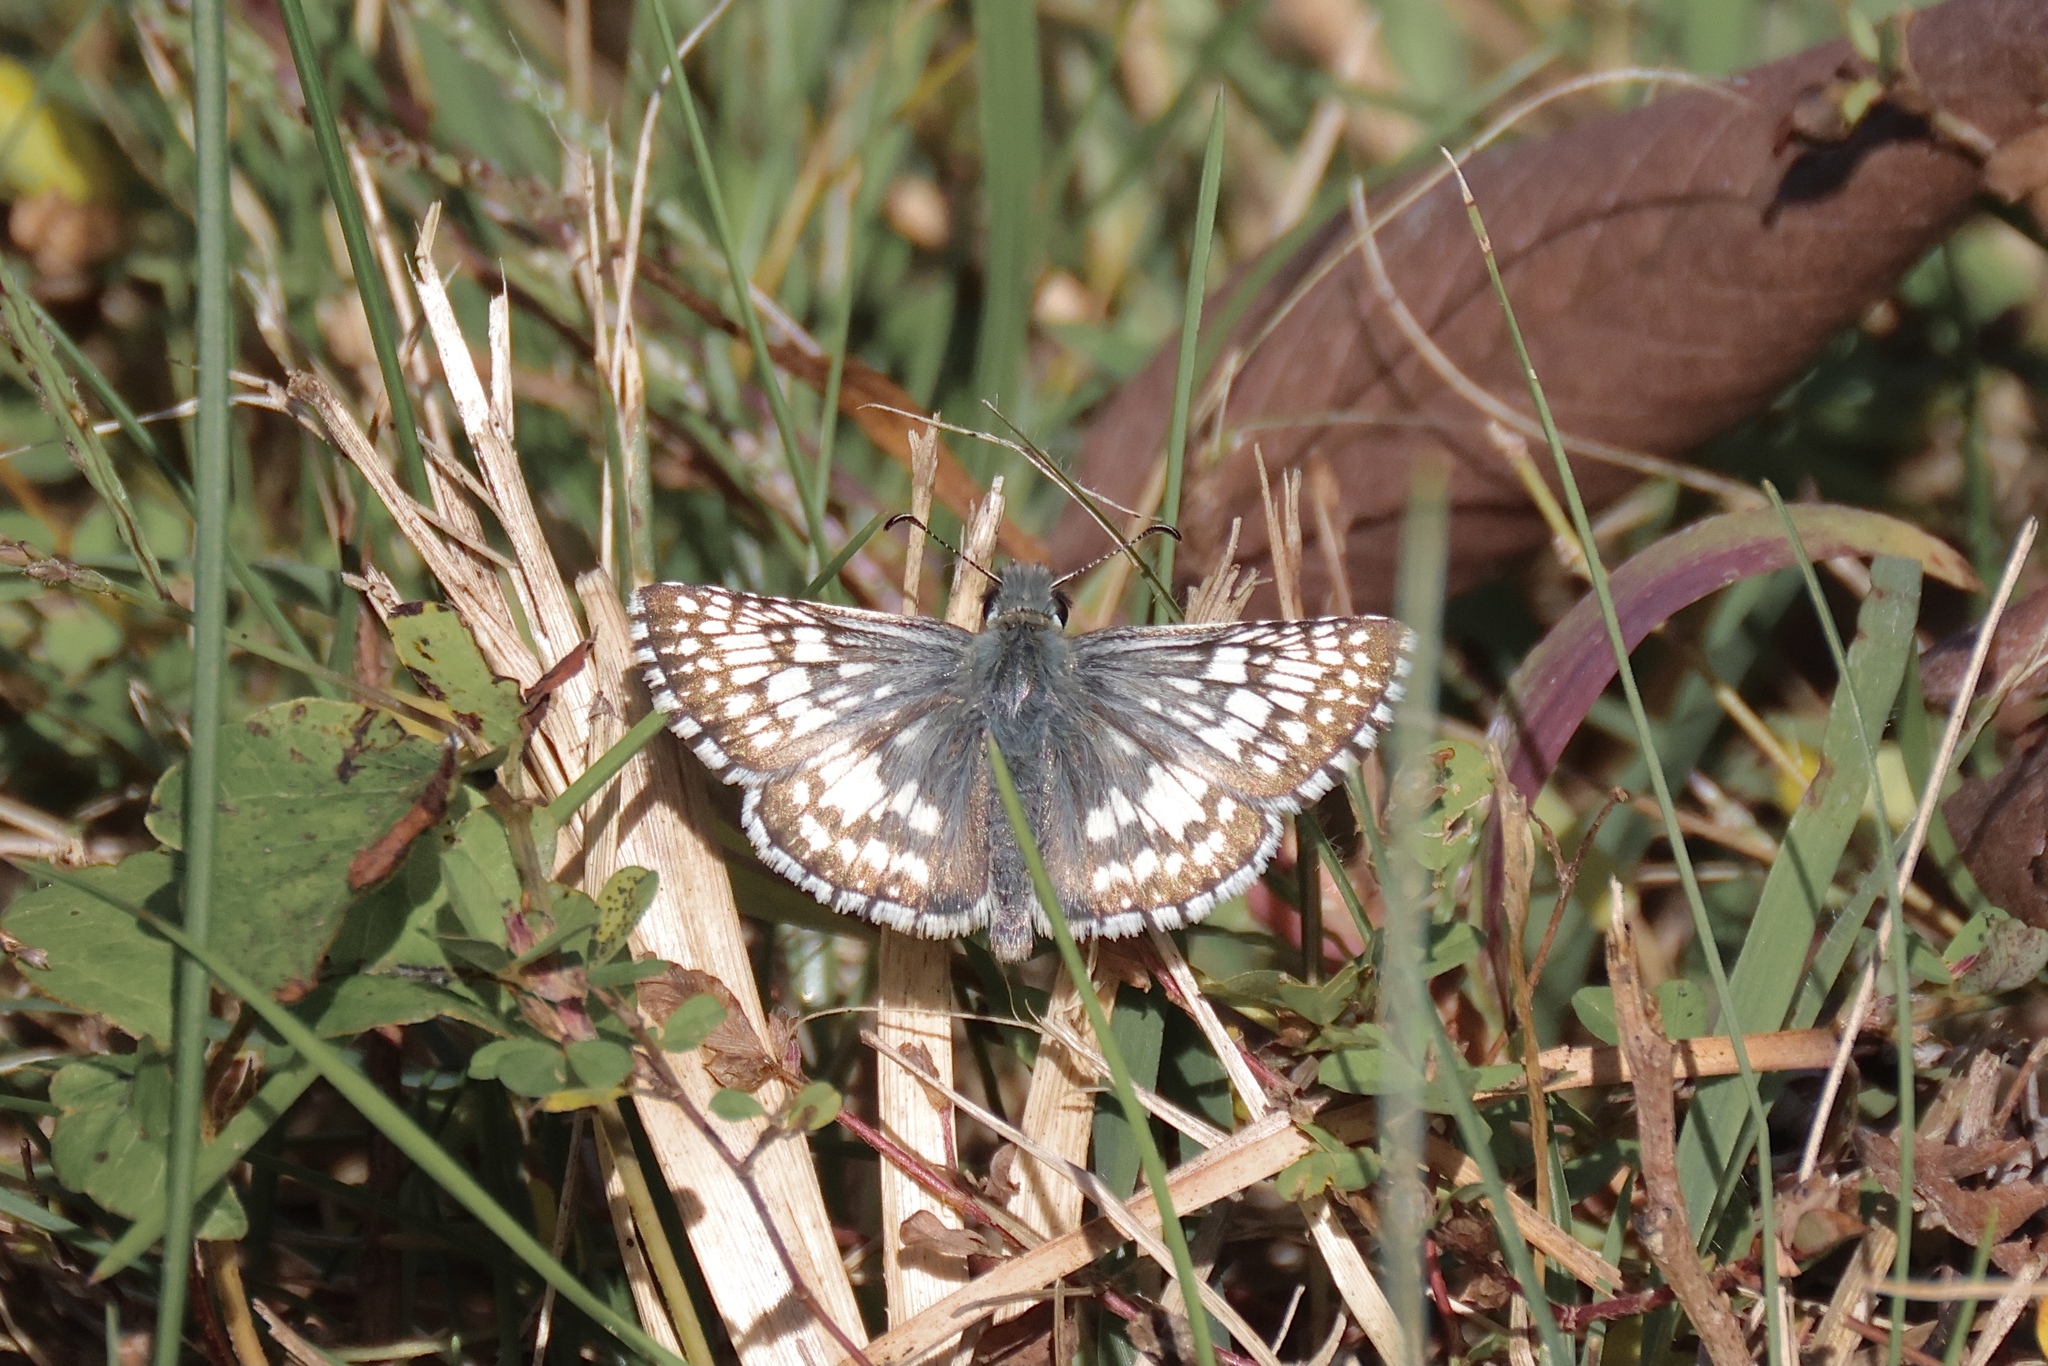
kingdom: Animalia
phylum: Arthropoda
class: Insecta
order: Lepidoptera
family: Hesperiidae
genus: Burnsius
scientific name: Burnsius communis
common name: Common checkered-skipper
